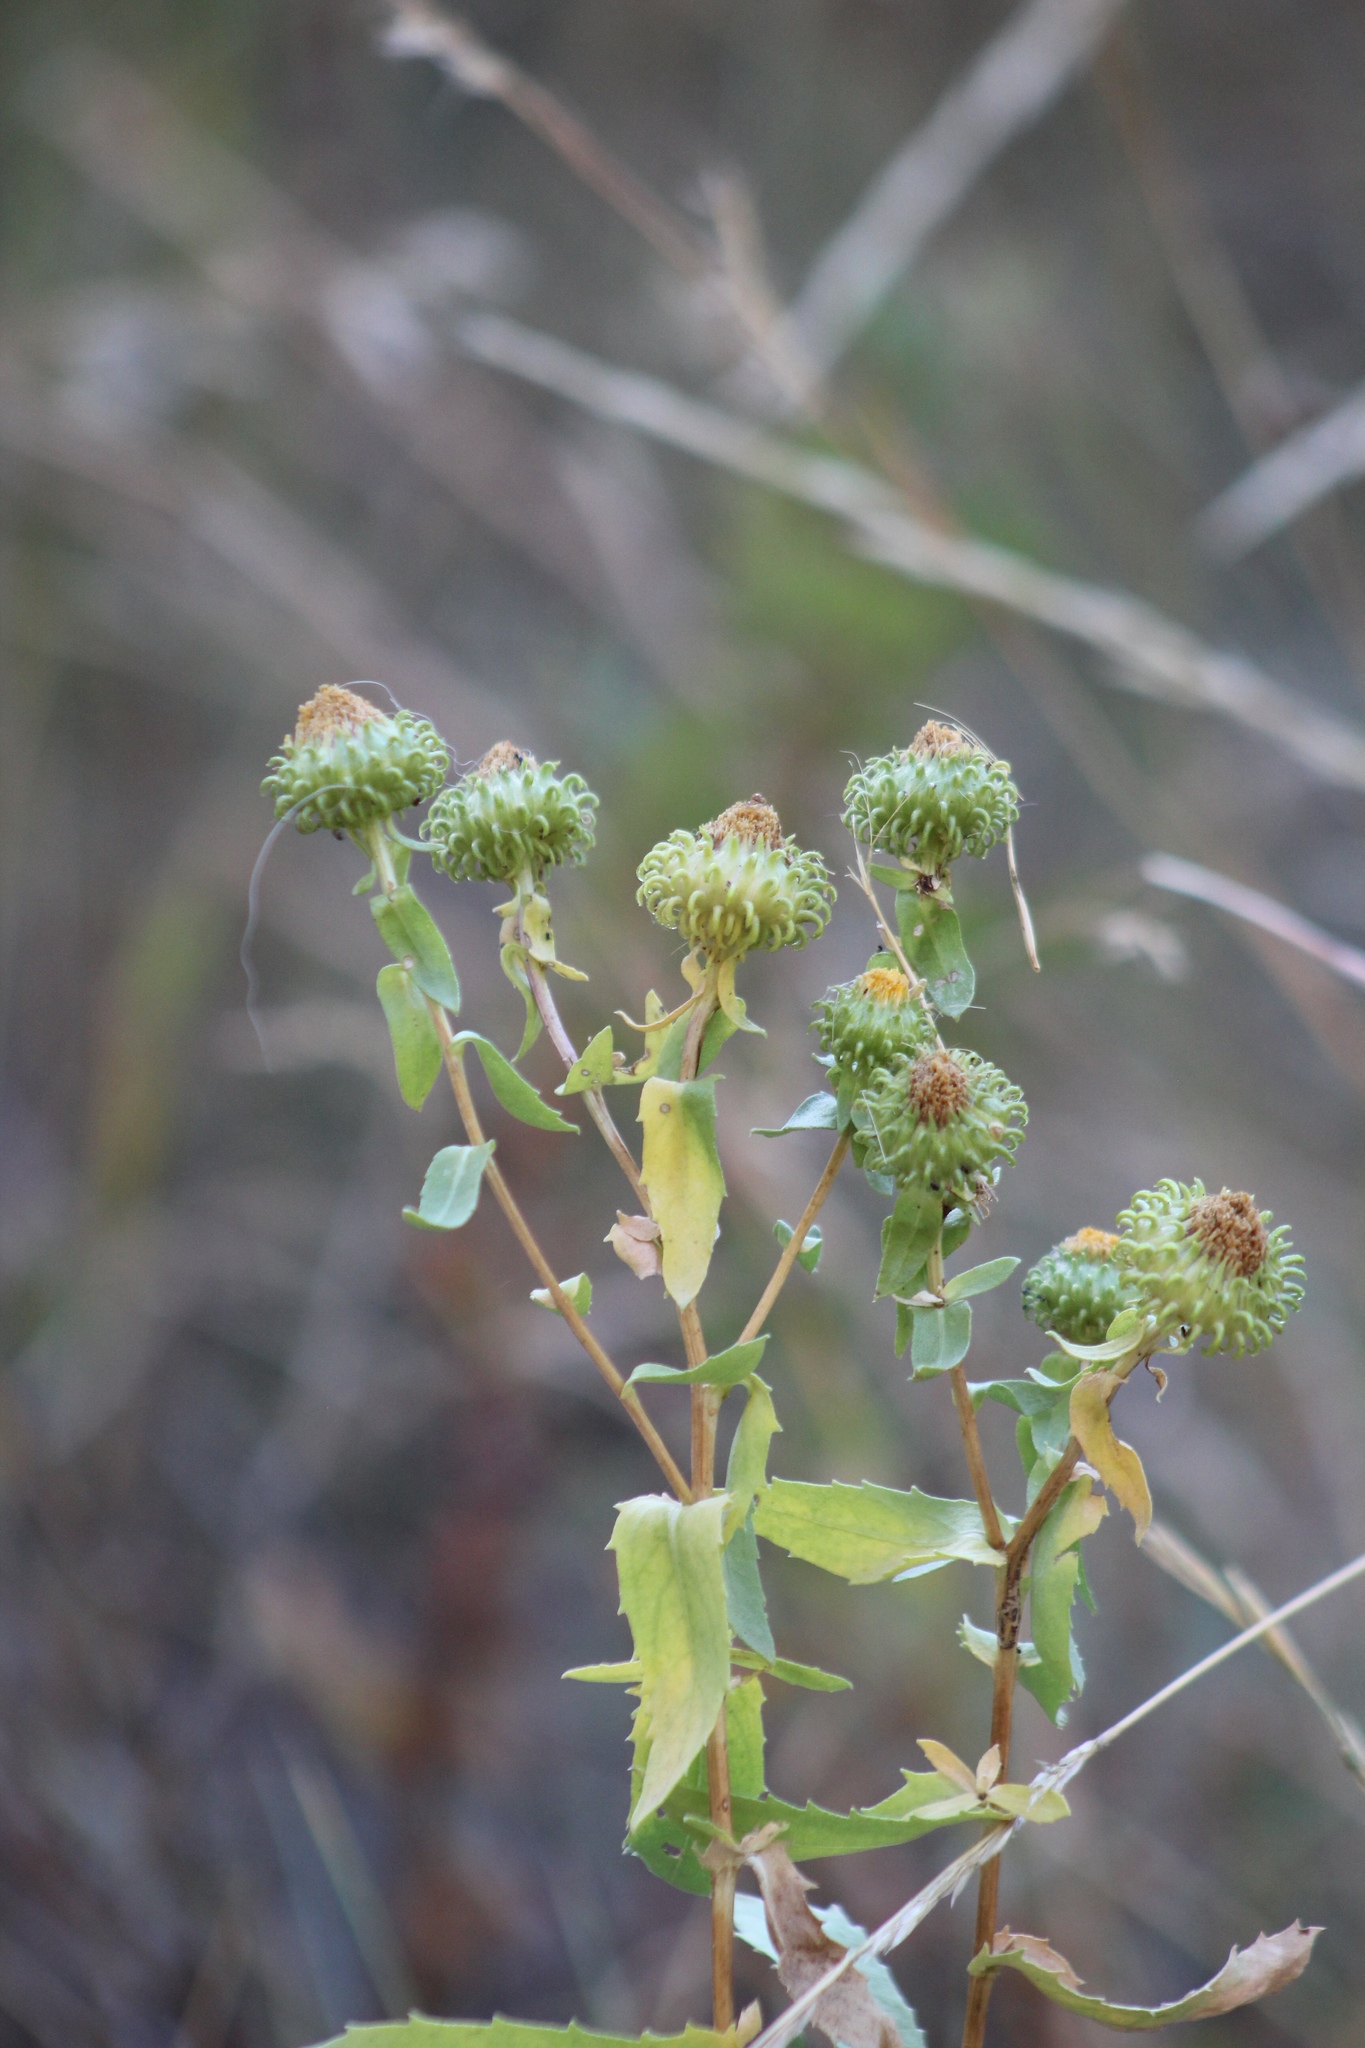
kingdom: Plantae
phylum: Tracheophyta
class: Magnoliopsida
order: Asterales
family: Asteraceae
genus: Grindelia
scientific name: Grindelia squarrosa
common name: Curly-cup gumweed
